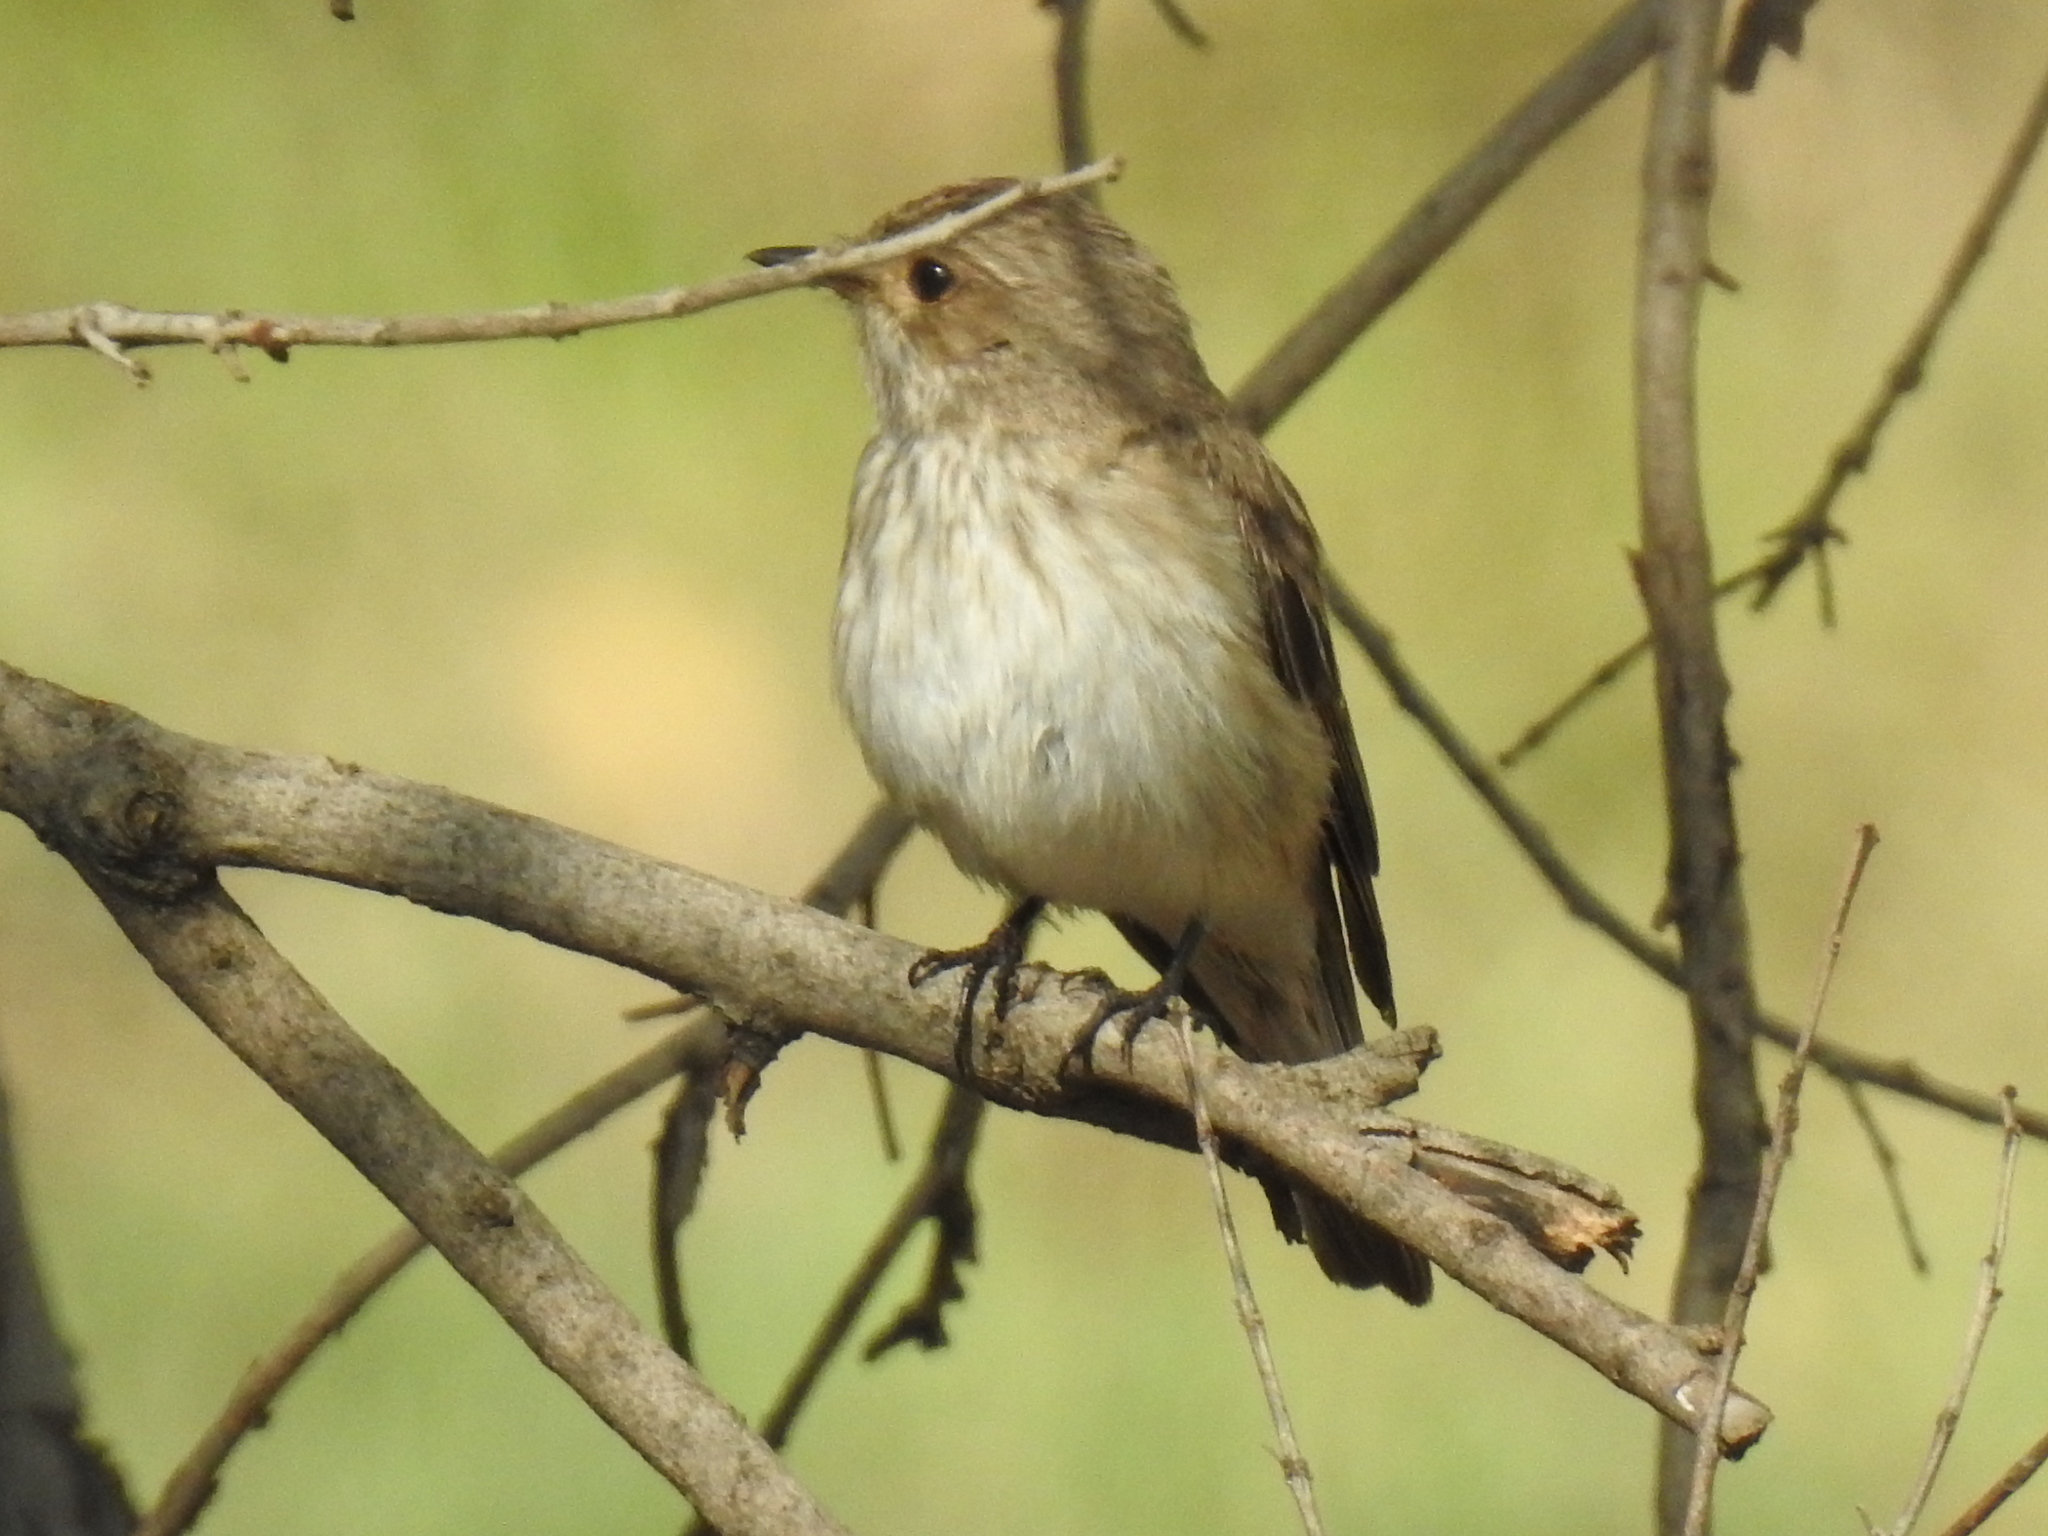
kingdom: Animalia
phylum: Chordata
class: Aves
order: Passeriformes
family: Muscicapidae
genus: Muscicapa
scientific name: Muscicapa striata
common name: Spotted flycatcher
